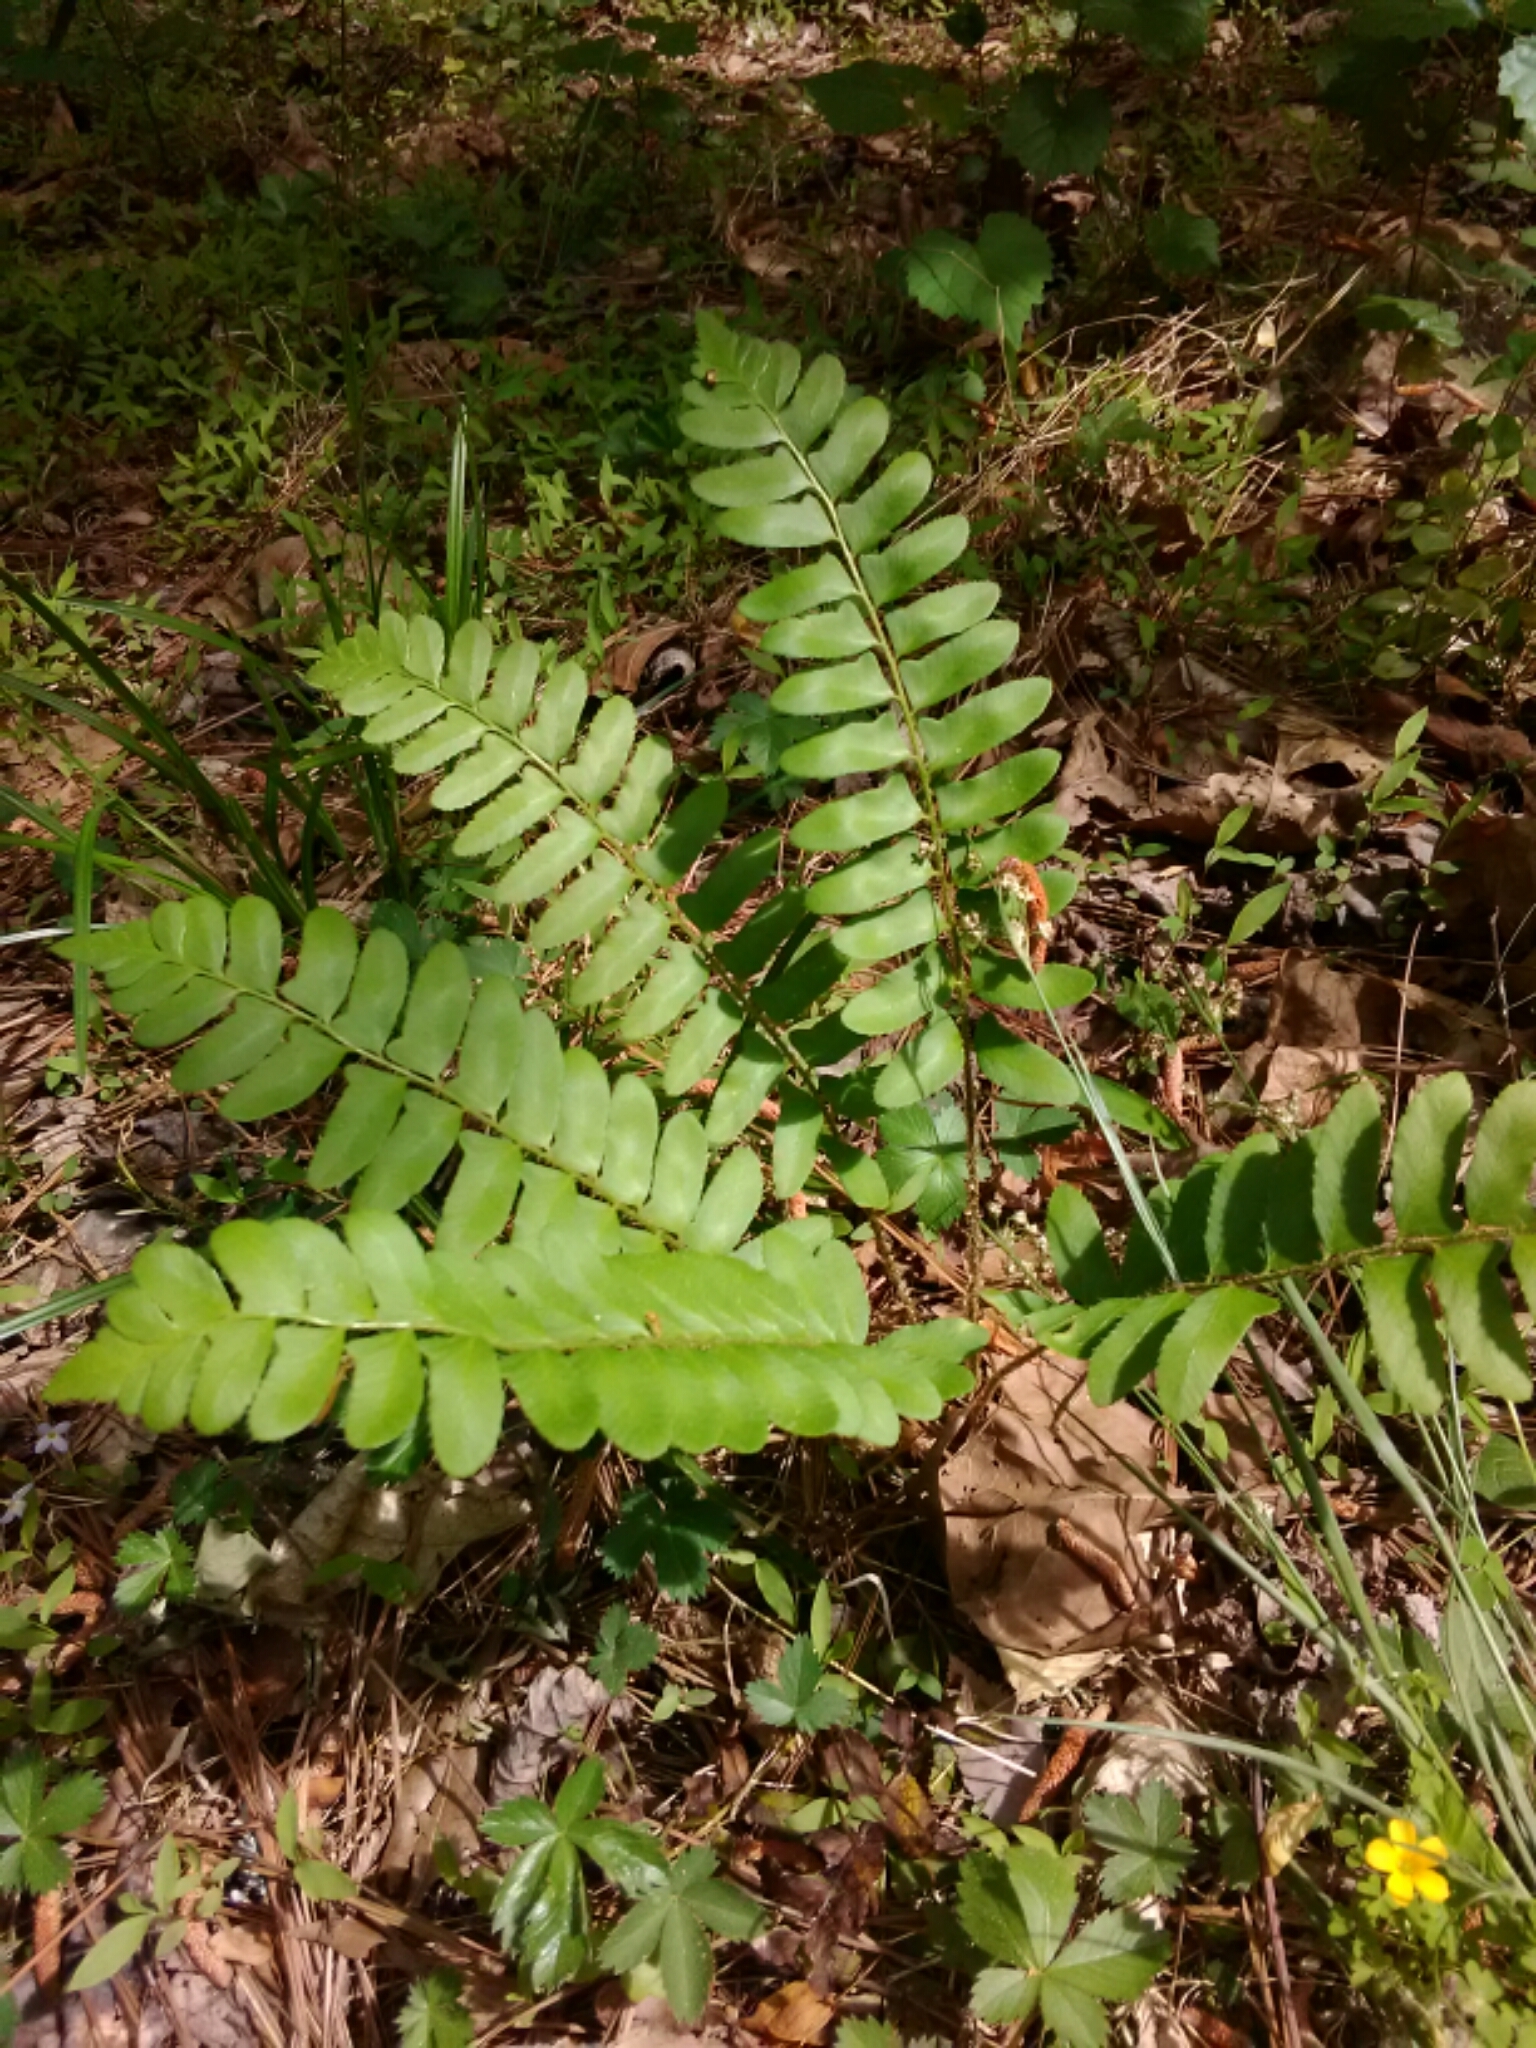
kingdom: Plantae
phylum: Tracheophyta
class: Polypodiopsida
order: Polypodiales
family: Dryopteridaceae
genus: Polystichum
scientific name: Polystichum acrostichoides
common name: Christmas fern
